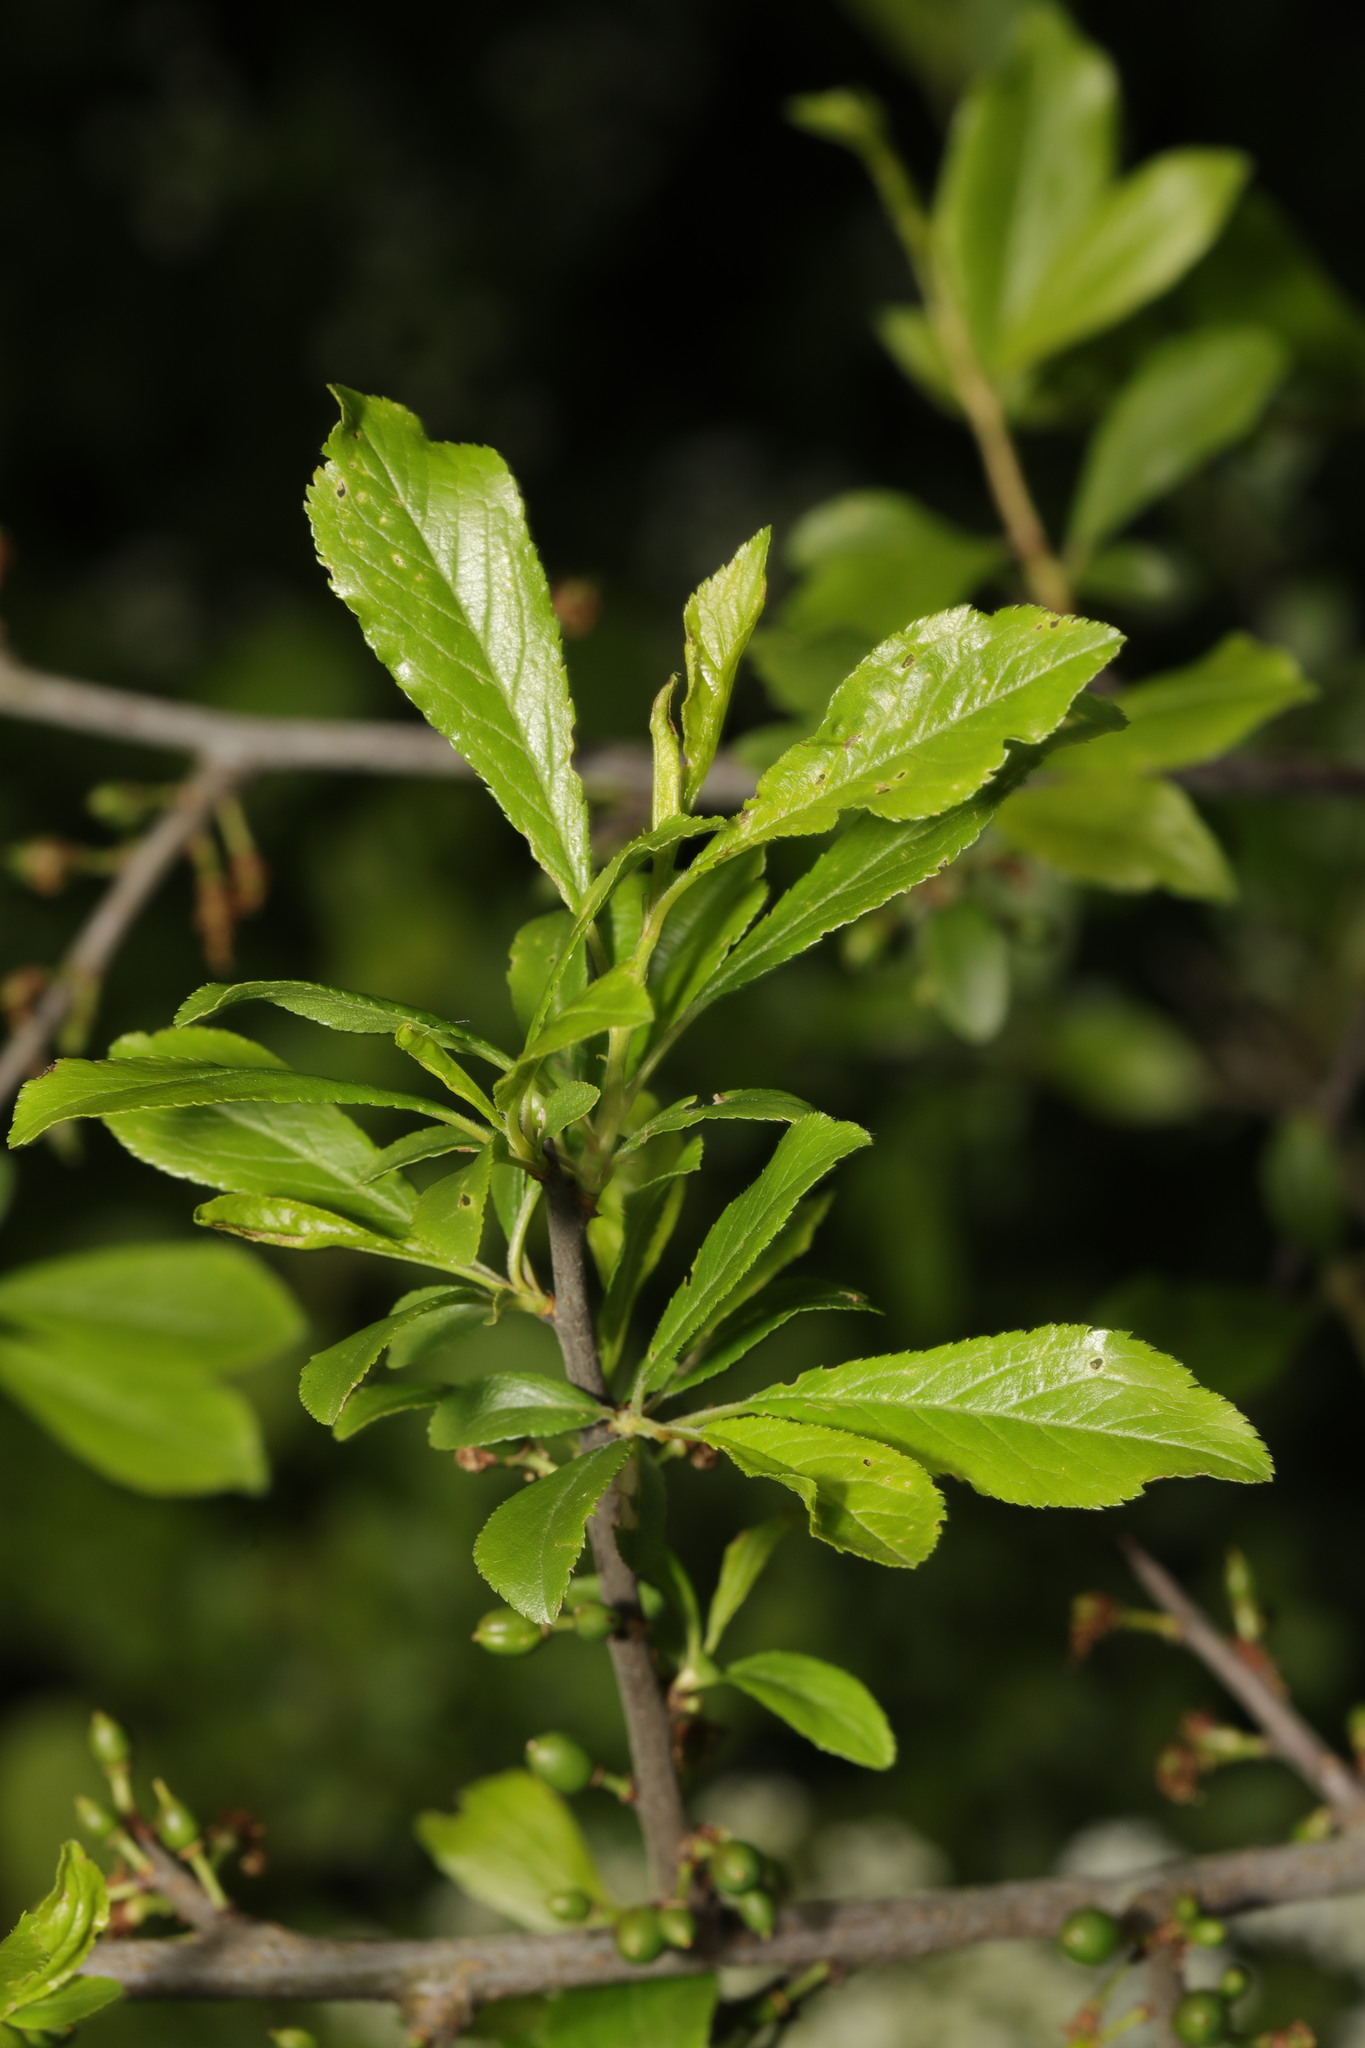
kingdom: Plantae
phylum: Tracheophyta
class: Magnoliopsida
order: Rosales
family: Rosaceae
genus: Prunus
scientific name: Prunus spinosa
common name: Blackthorn
